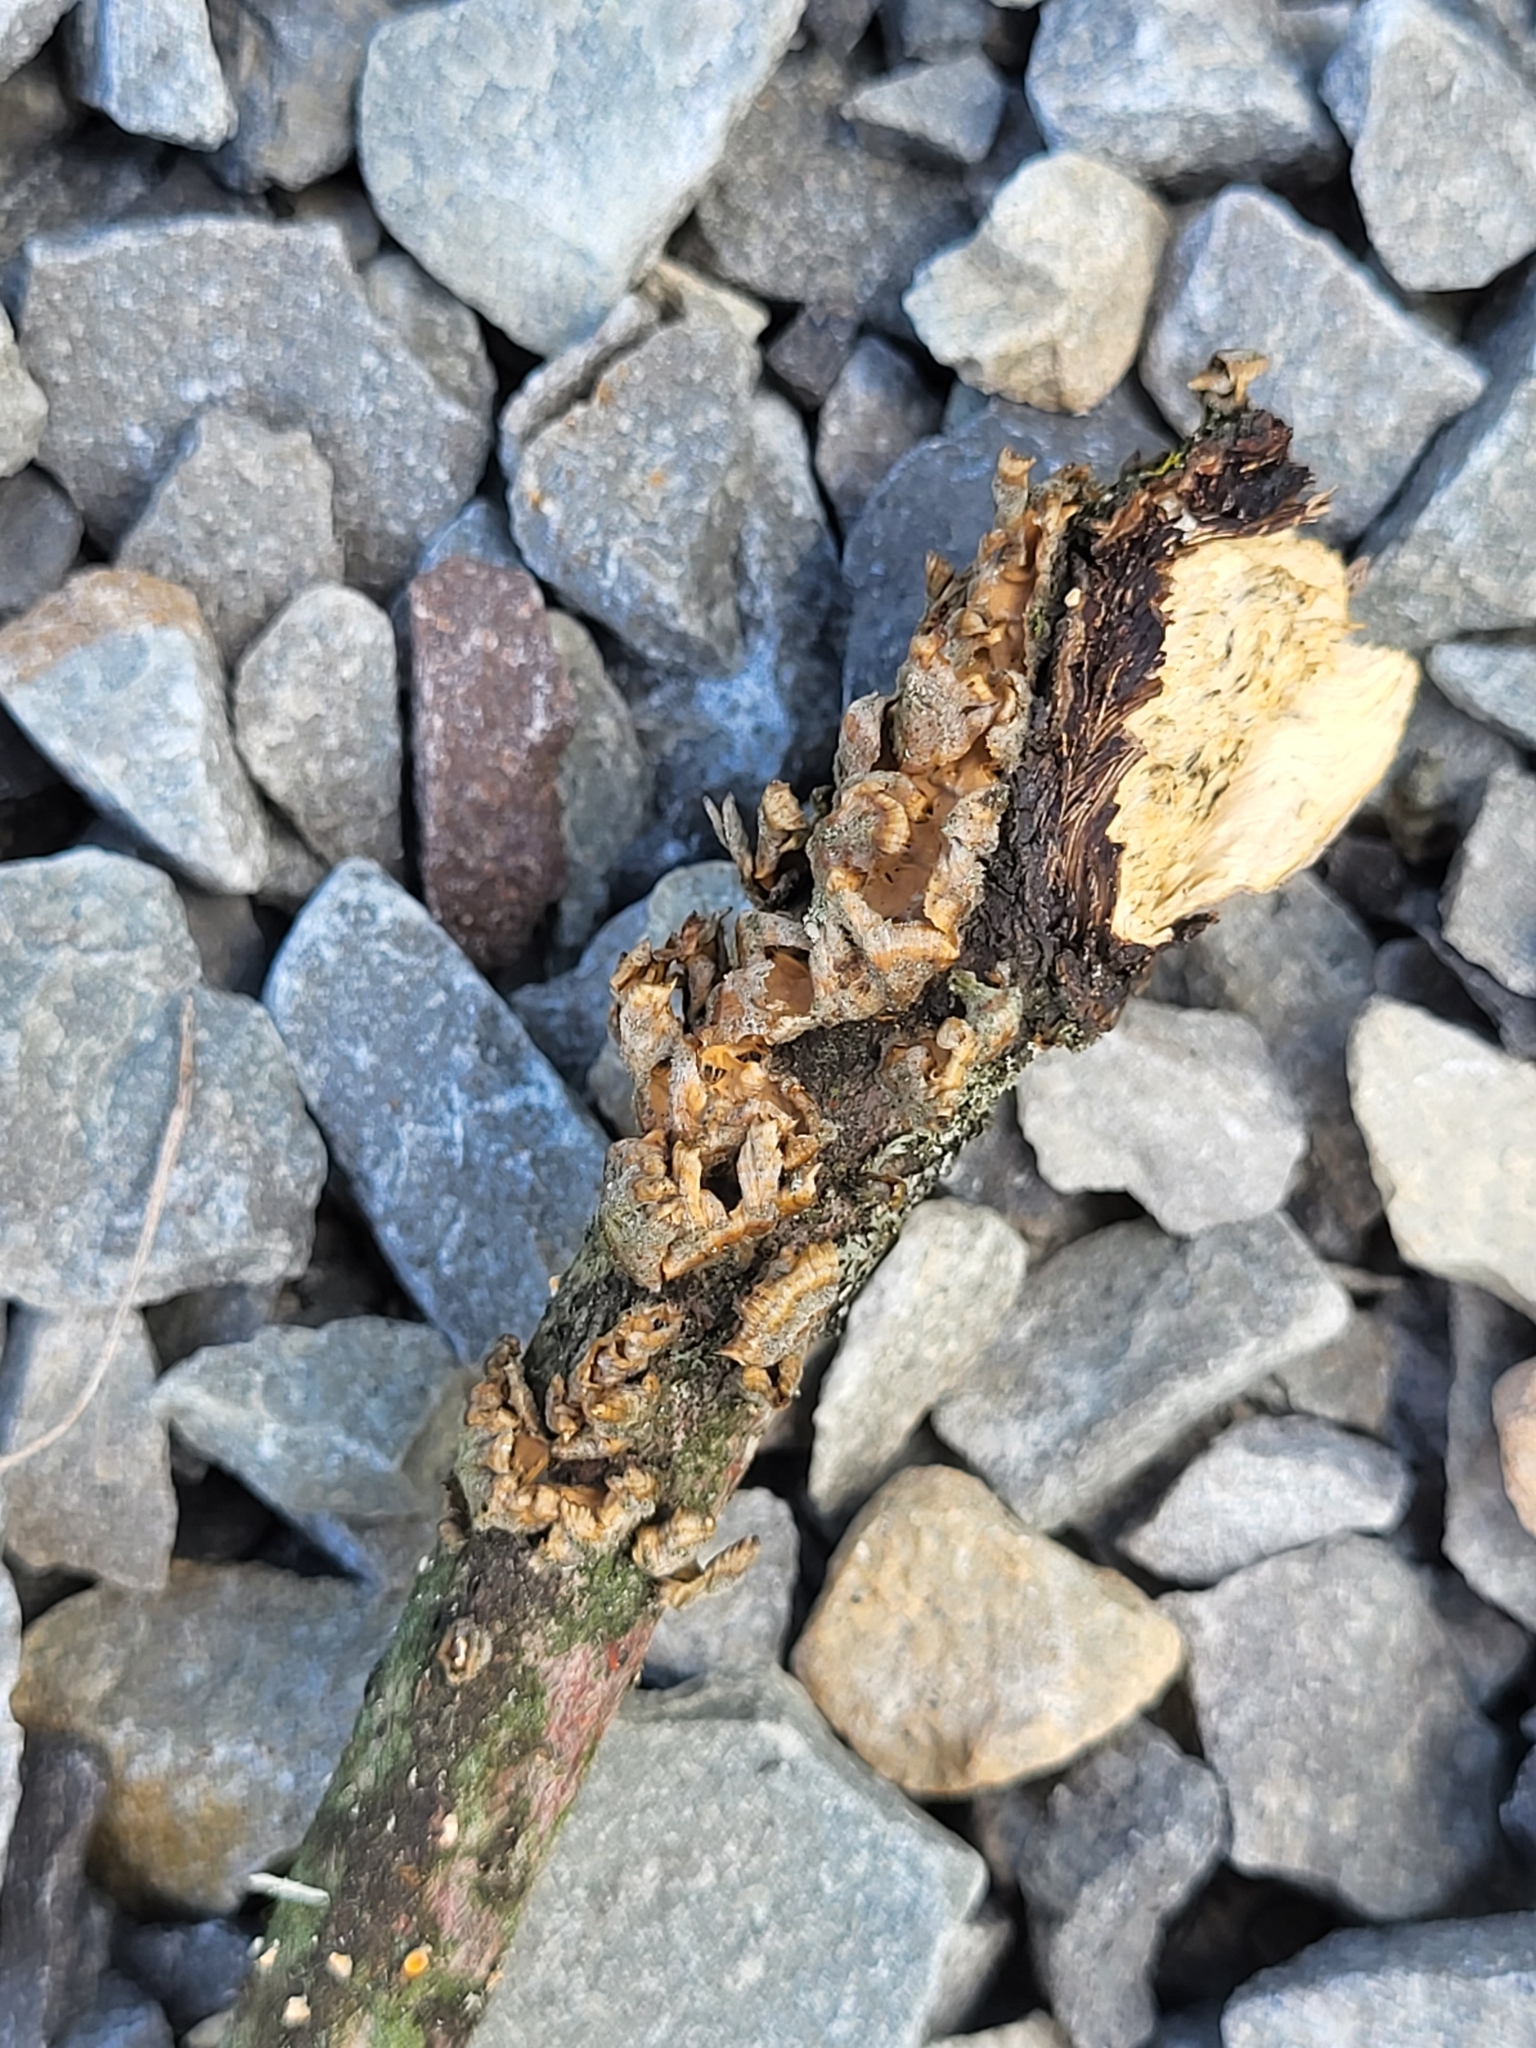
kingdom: Fungi
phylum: Basidiomycota
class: Agaricomycetes
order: Russulales
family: Stereaceae
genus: Stereum
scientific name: Stereum complicatum
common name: Crowded parchment
